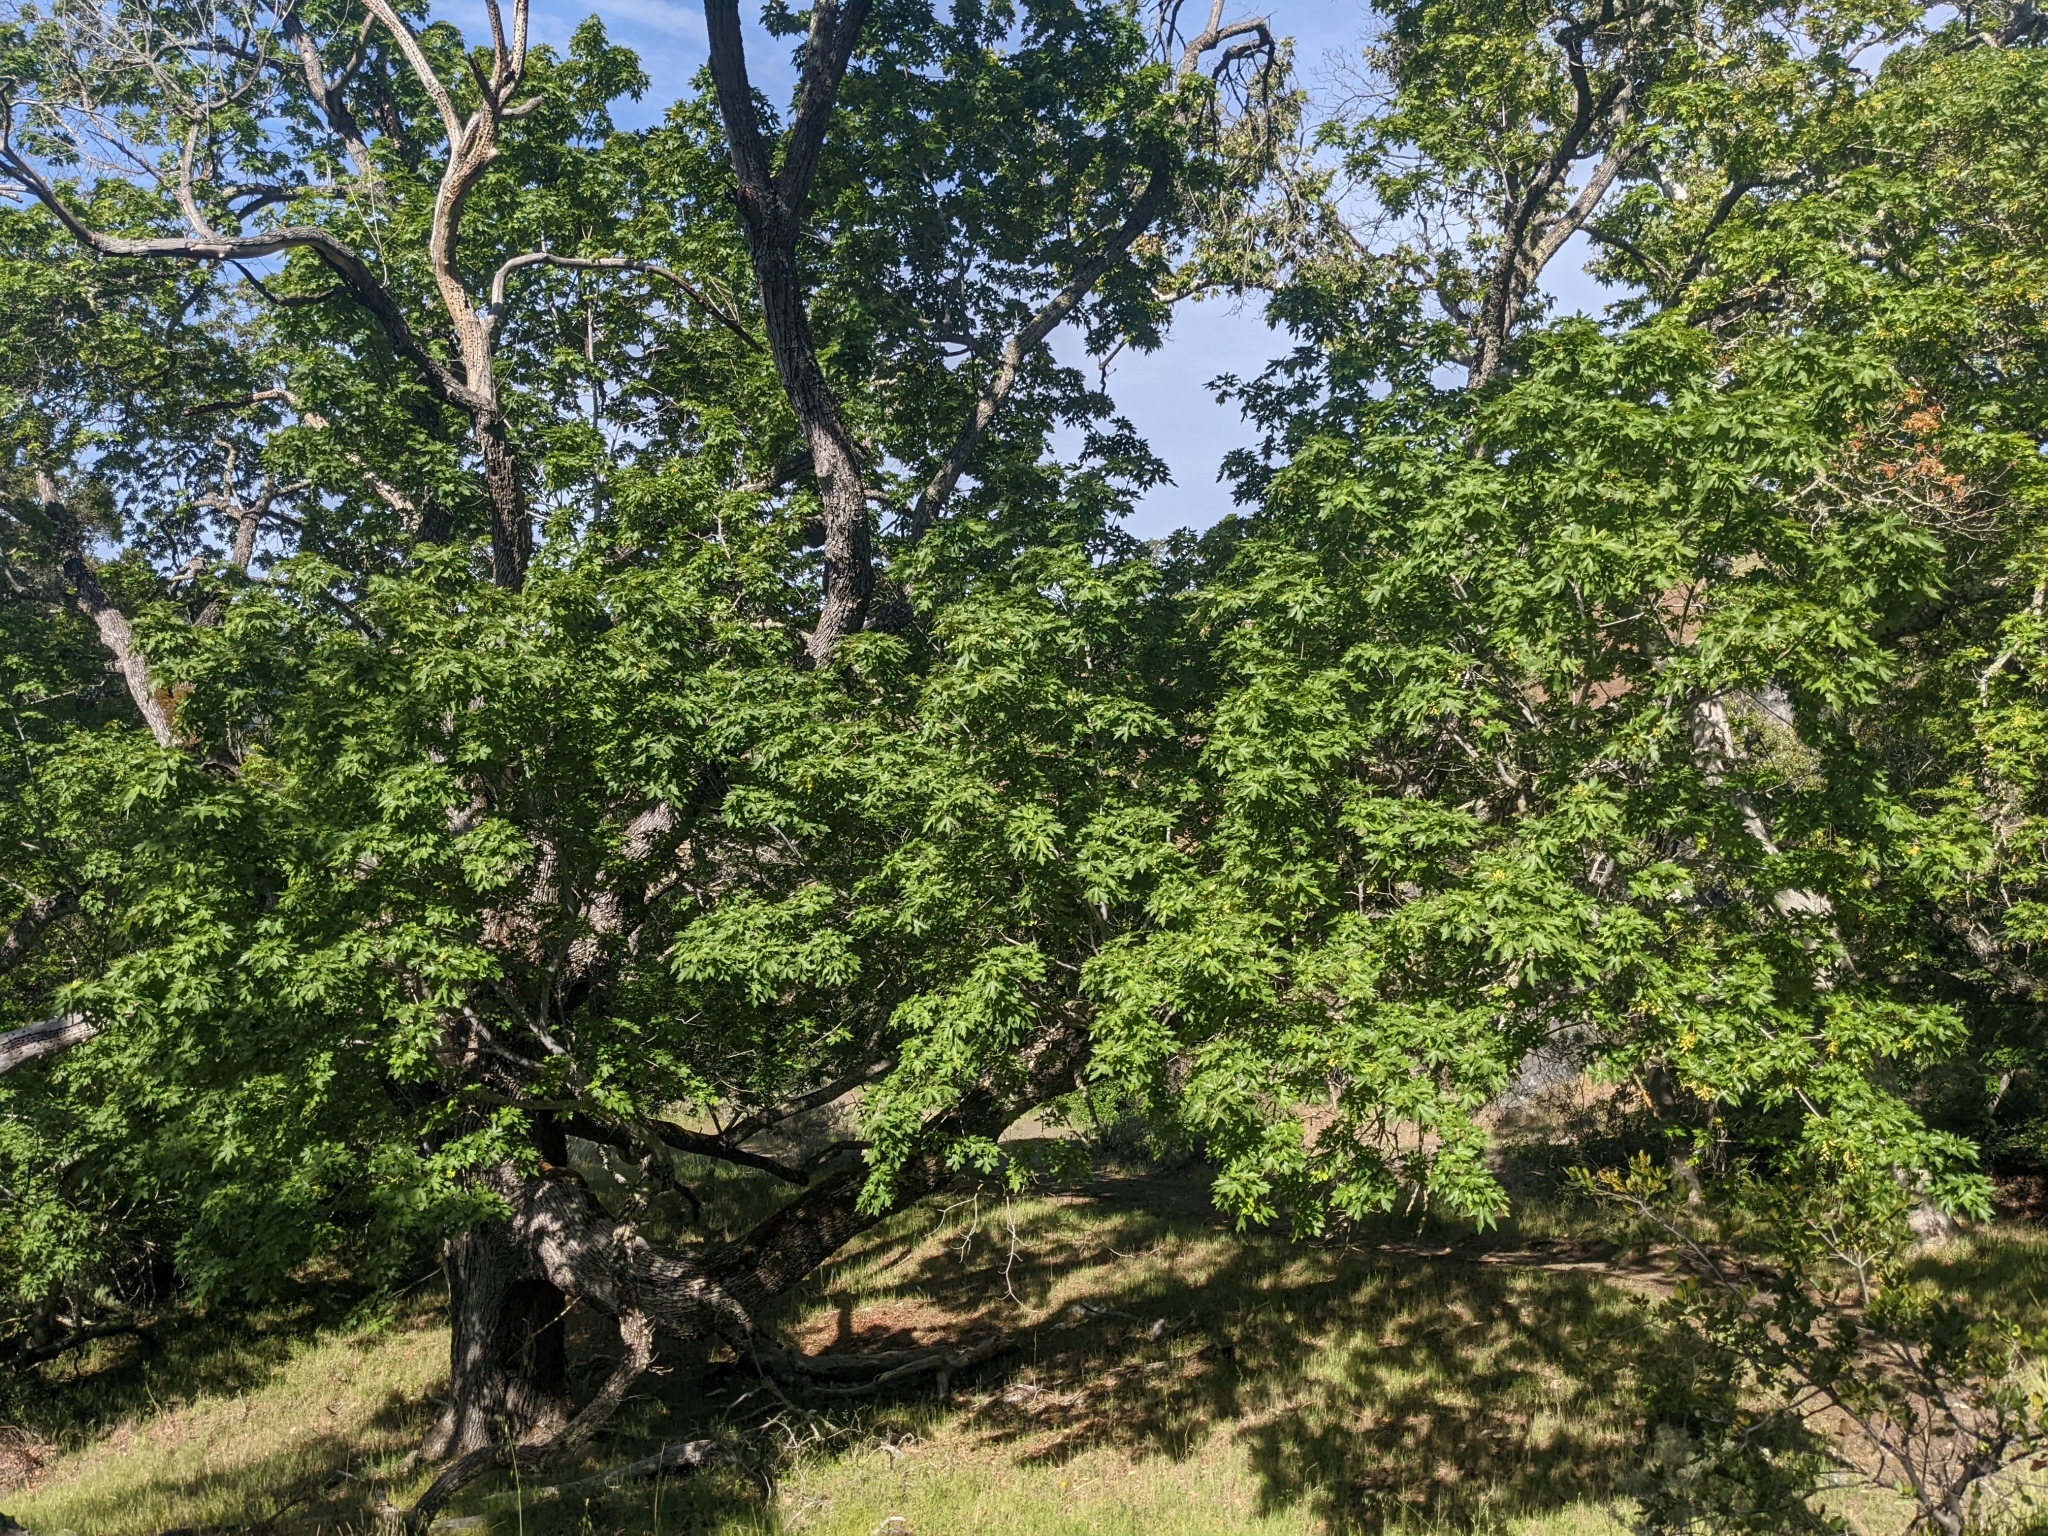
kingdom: Plantae
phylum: Tracheophyta
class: Magnoliopsida
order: Sapindales
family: Sapindaceae
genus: Acer
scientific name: Acer macrophyllum
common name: Oregon maple
